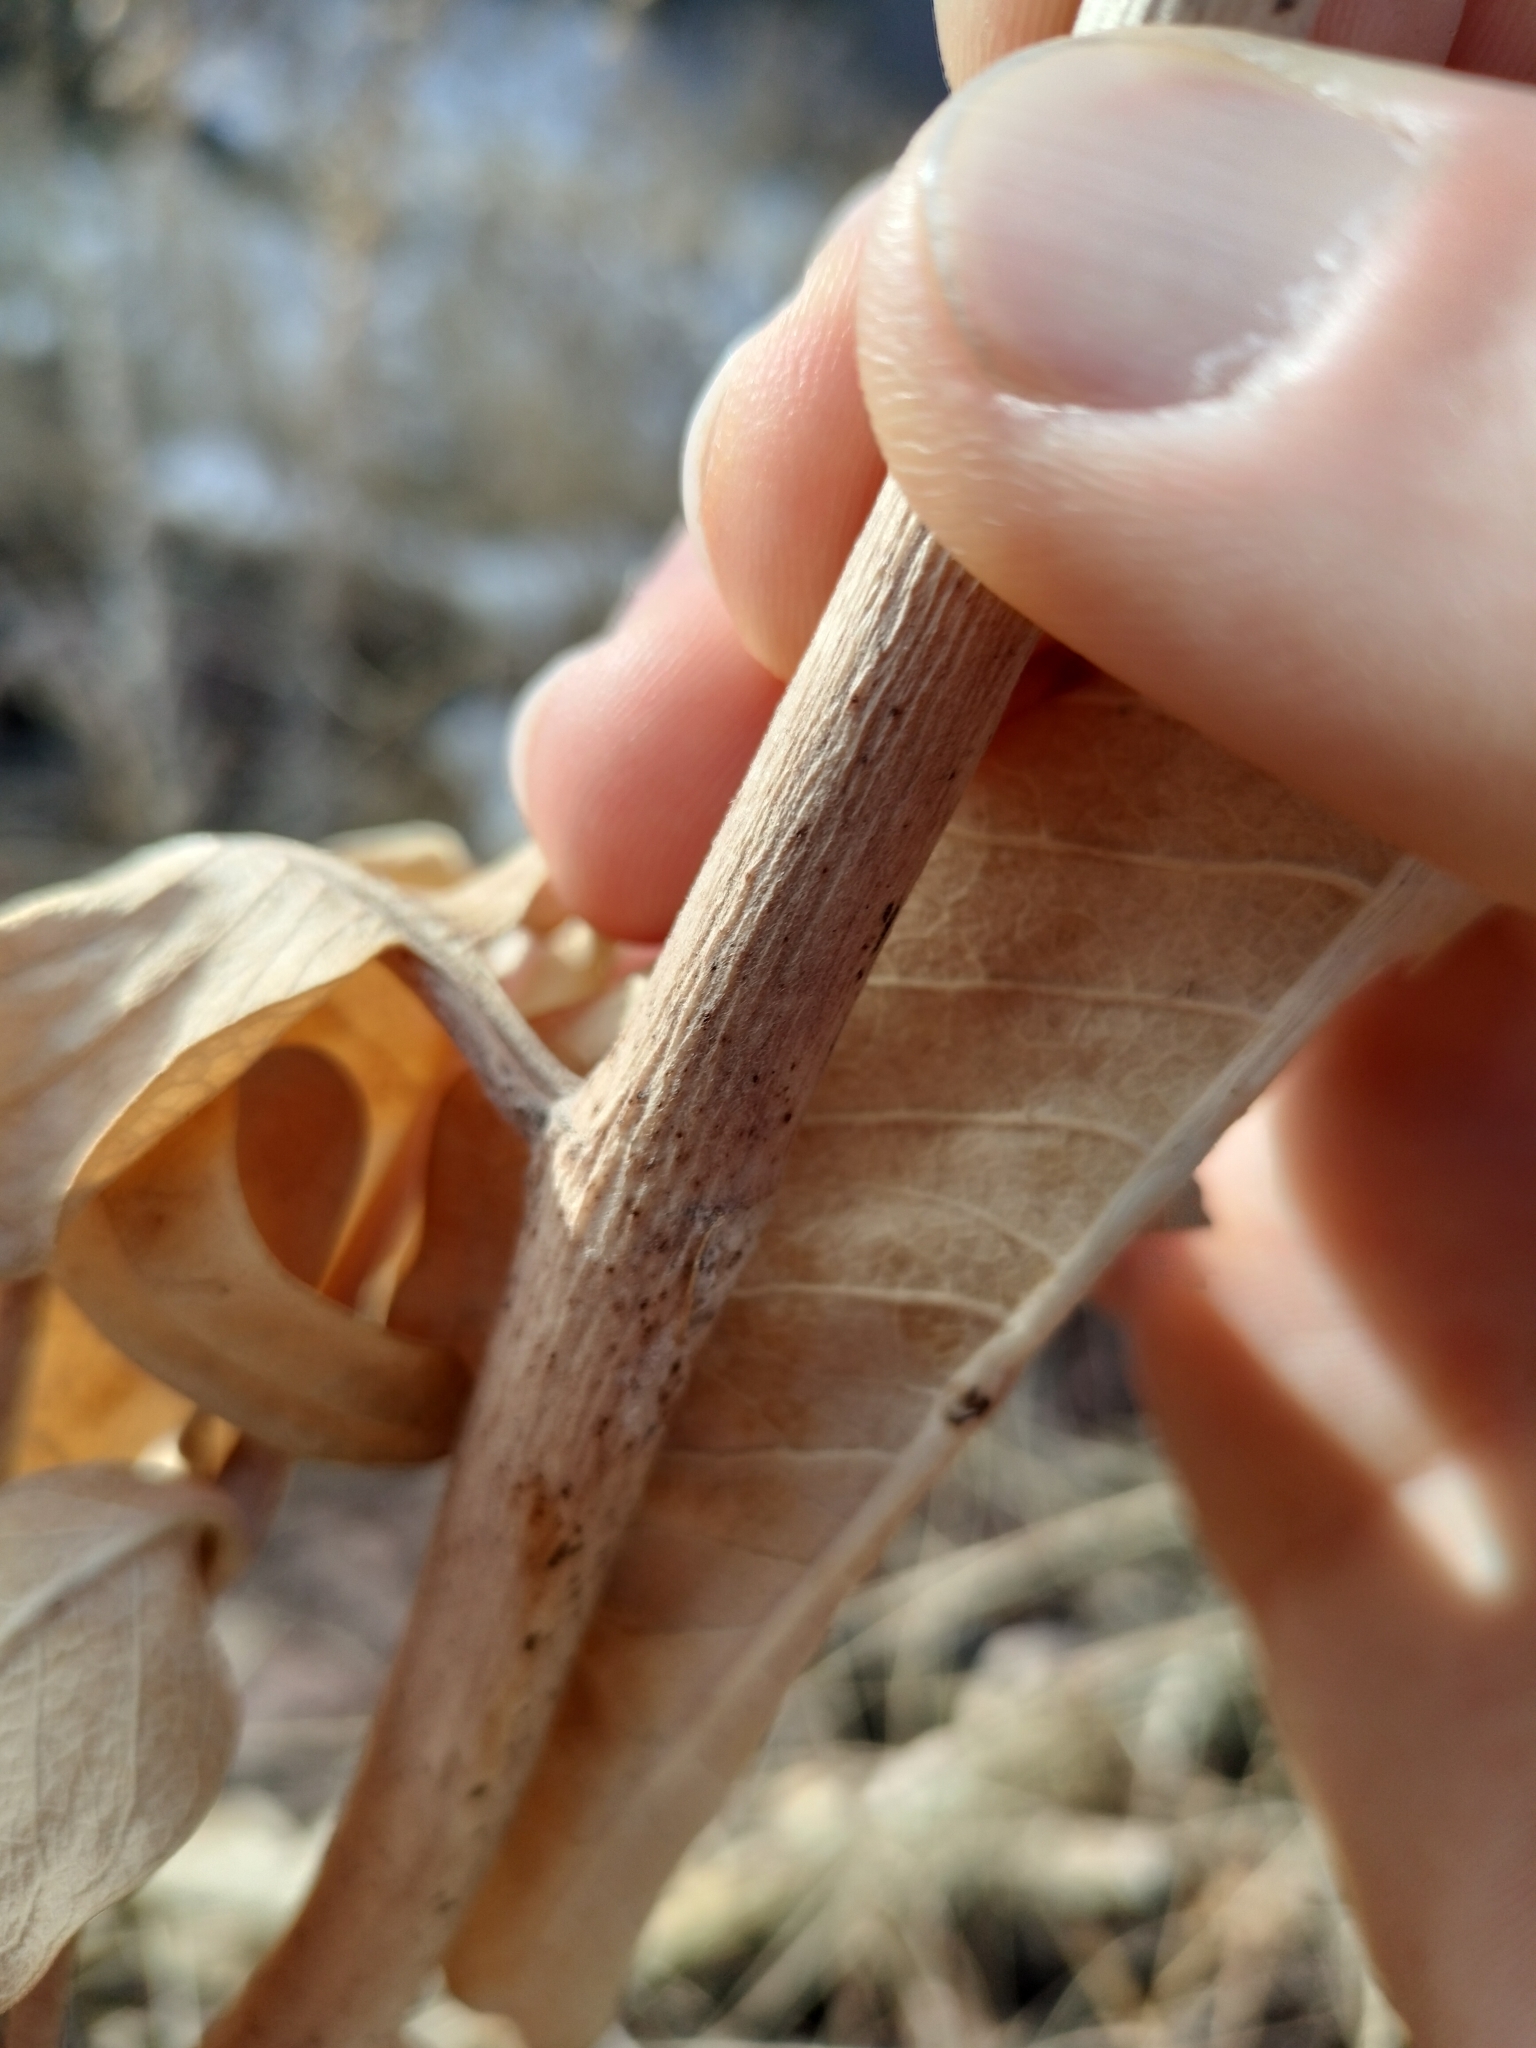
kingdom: Plantae
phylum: Tracheophyta
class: Magnoliopsida
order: Gentianales
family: Apocynaceae
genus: Asclepias
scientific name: Asclepias speciosa
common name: Showy milkweed
